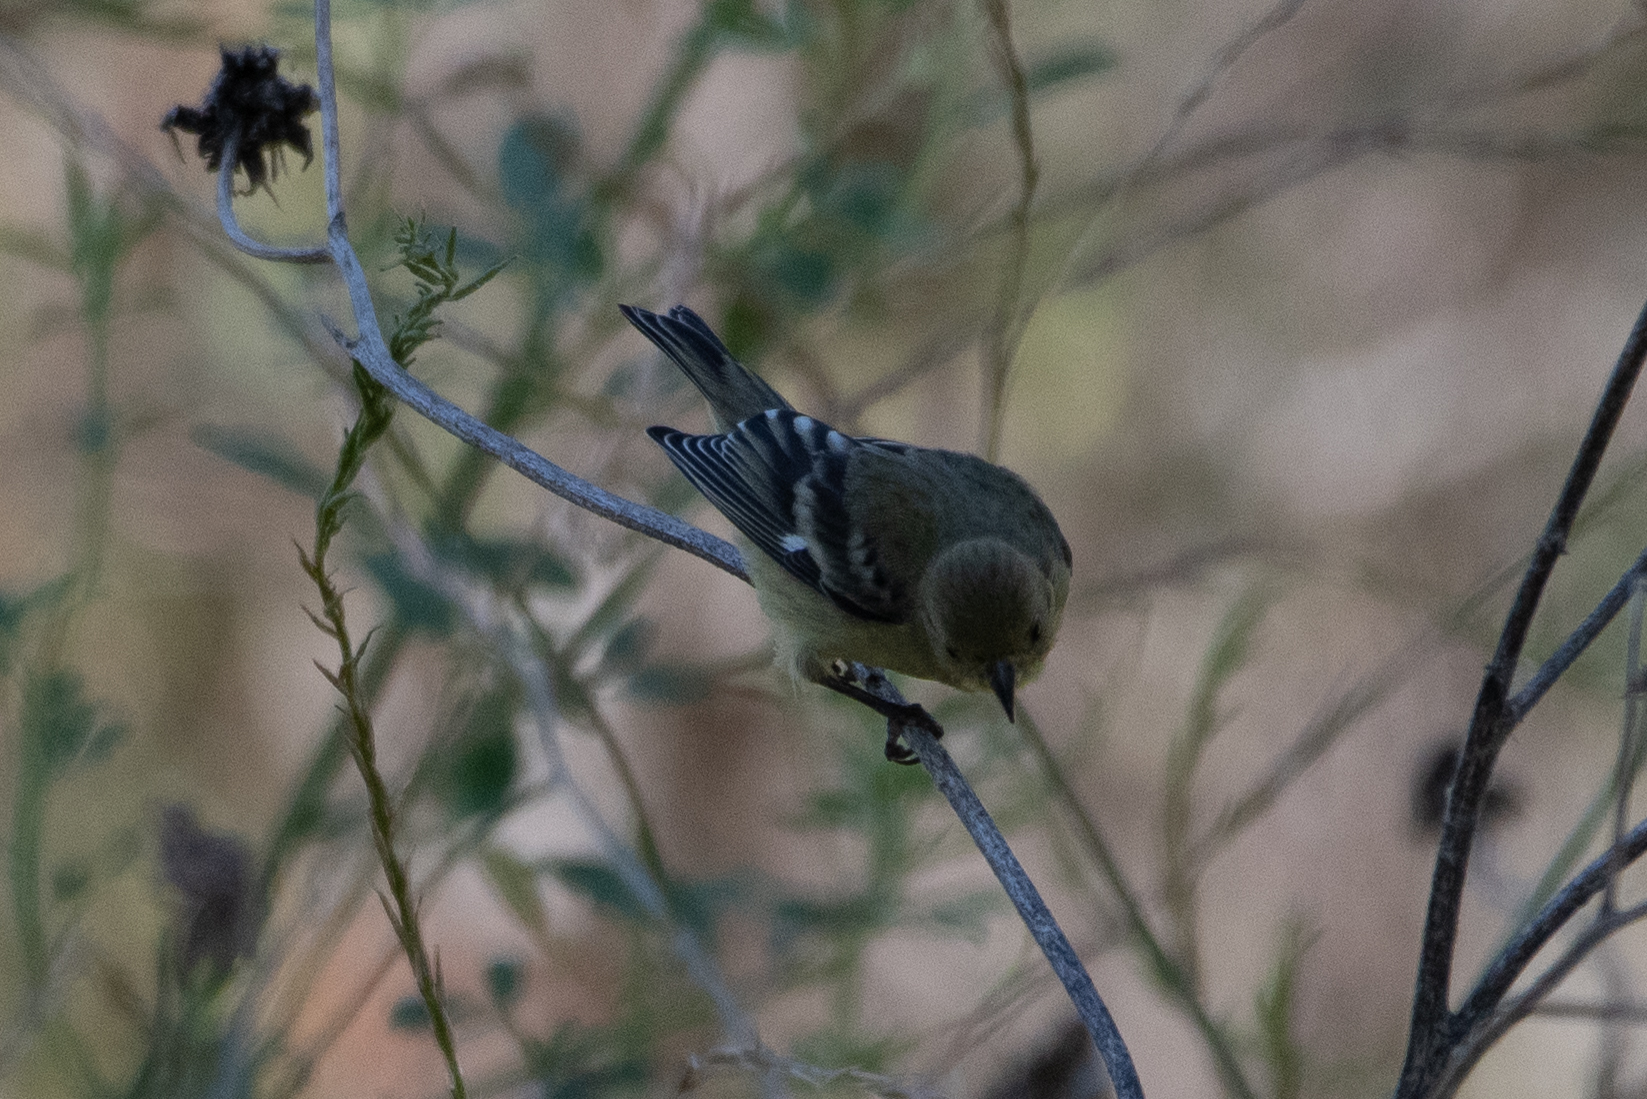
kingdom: Animalia
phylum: Chordata
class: Aves
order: Passeriformes
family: Fringillidae
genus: Spinus
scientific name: Spinus psaltria
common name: Lesser goldfinch
